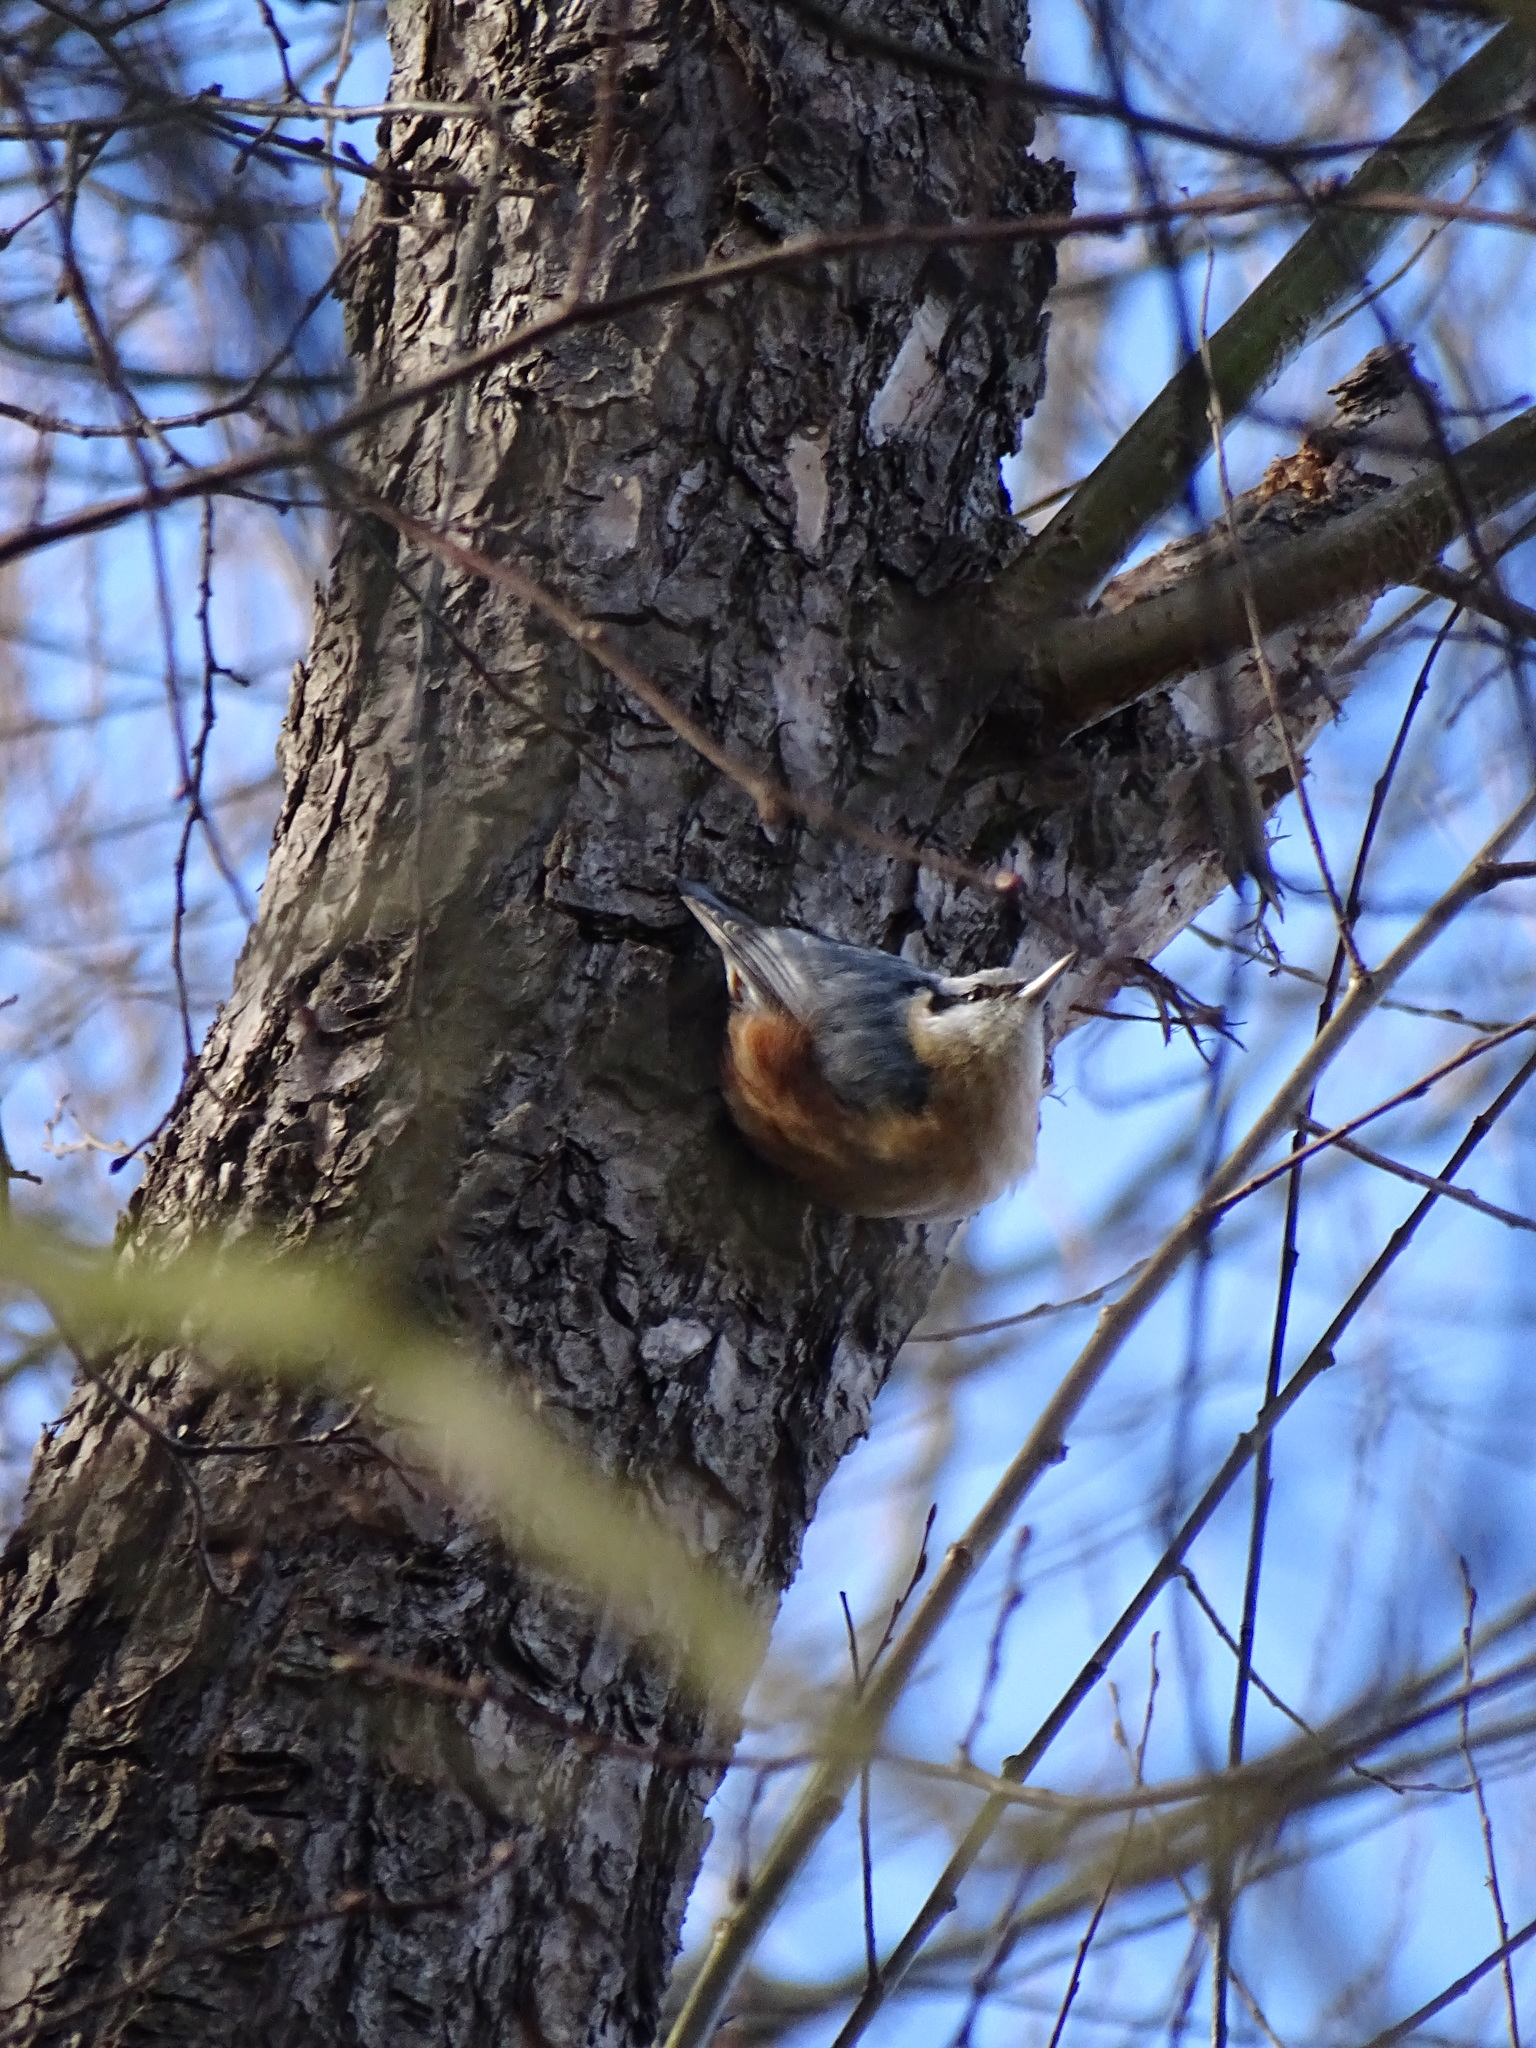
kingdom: Animalia
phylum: Chordata
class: Aves
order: Passeriformes
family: Sittidae
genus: Sitta
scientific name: Sitta europaea
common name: Eurasian nuthatch
